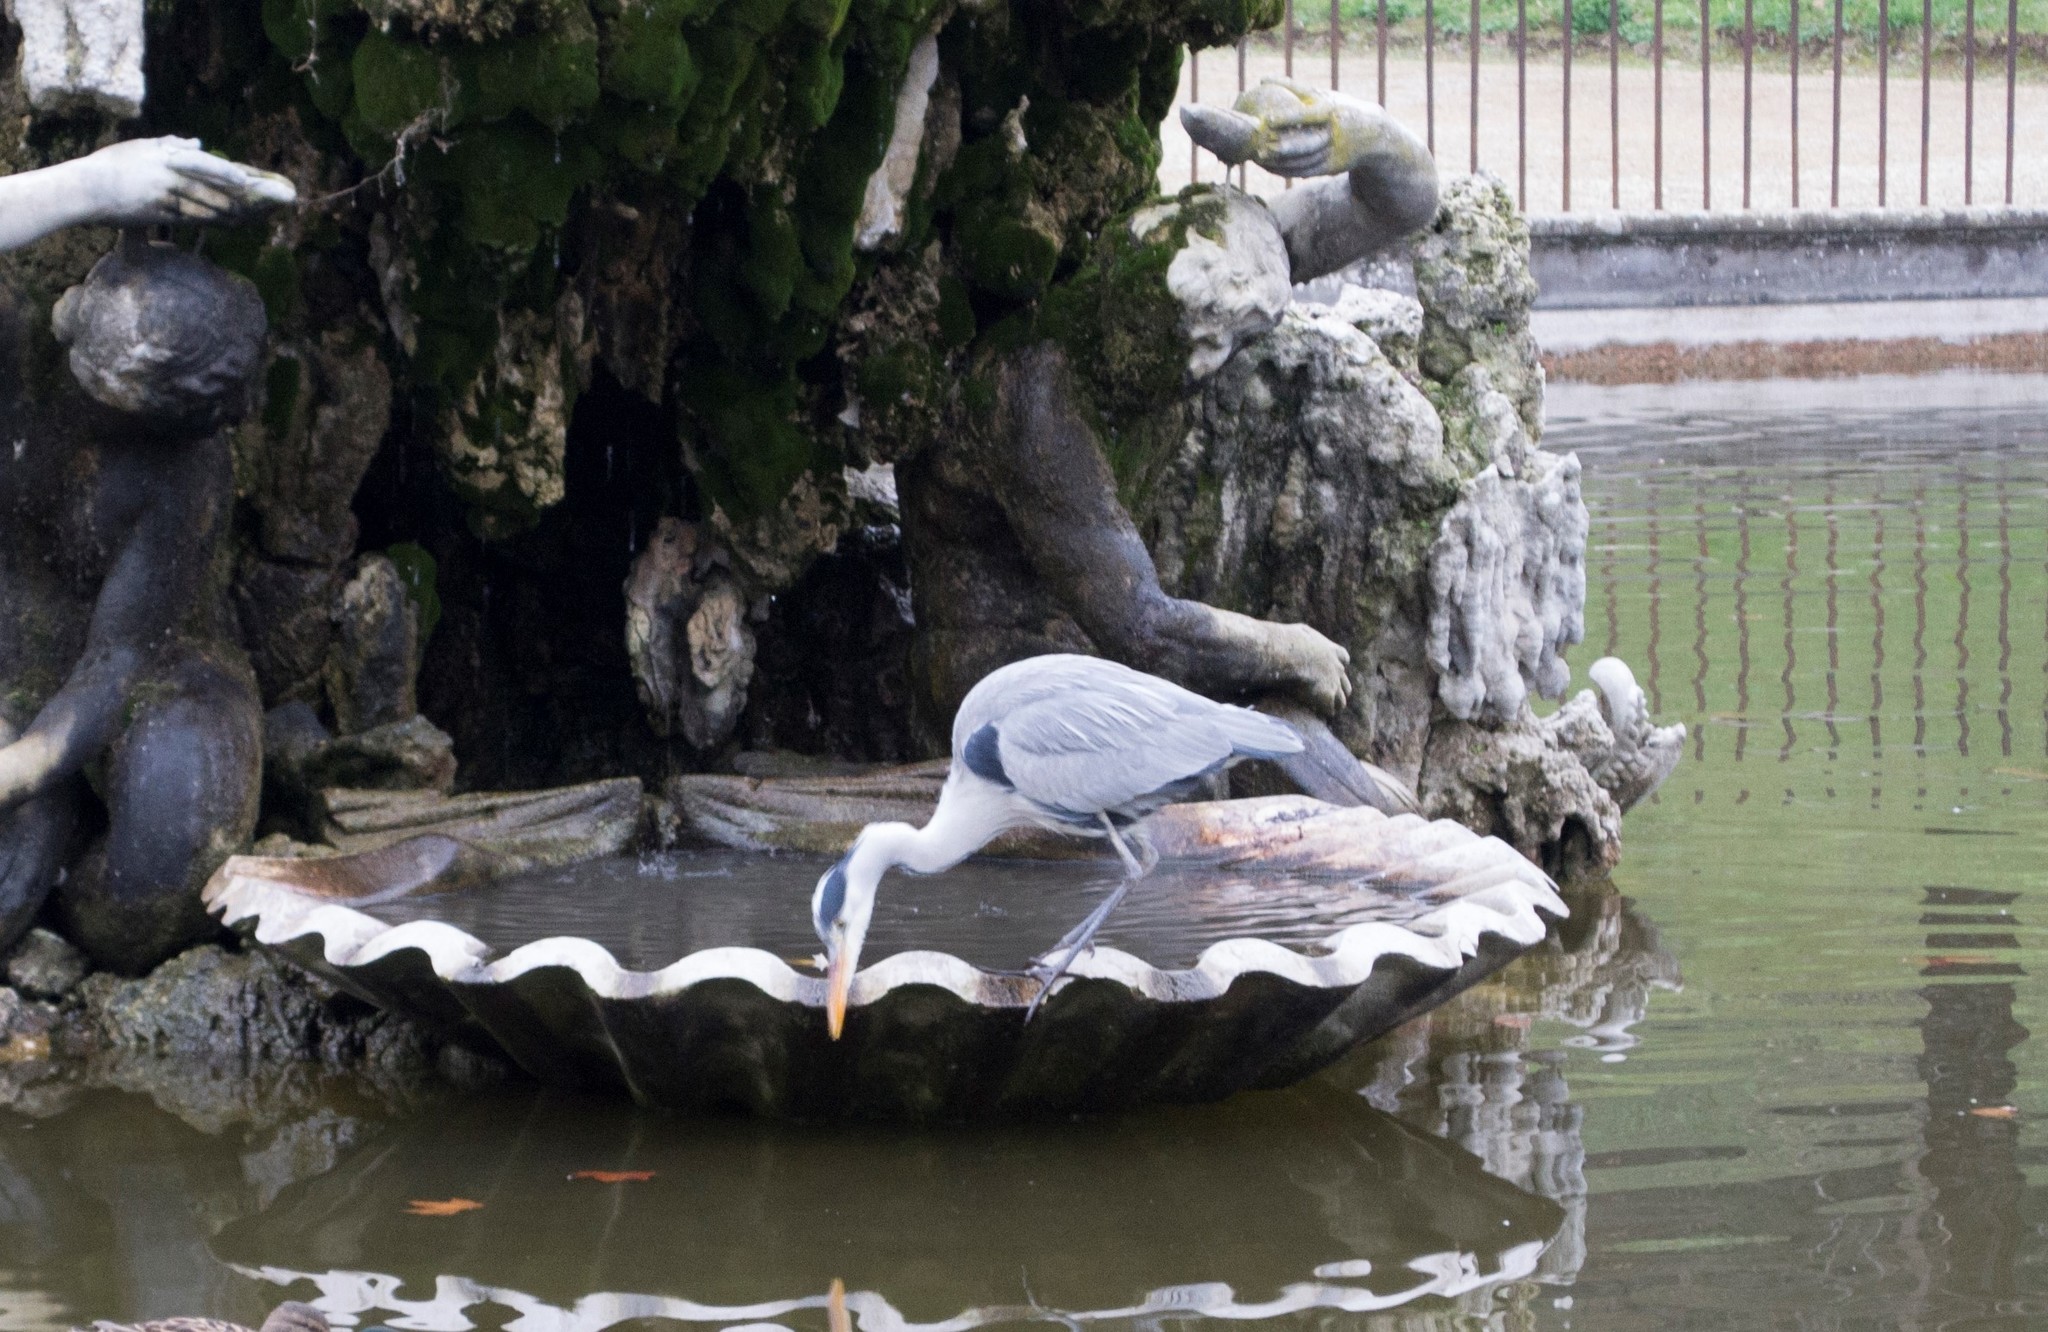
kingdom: Animalia
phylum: Chordata
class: Aves
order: Pelecaniformes
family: Ardeidae
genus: Ardea
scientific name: Ardea cinerea
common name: Grey heron
